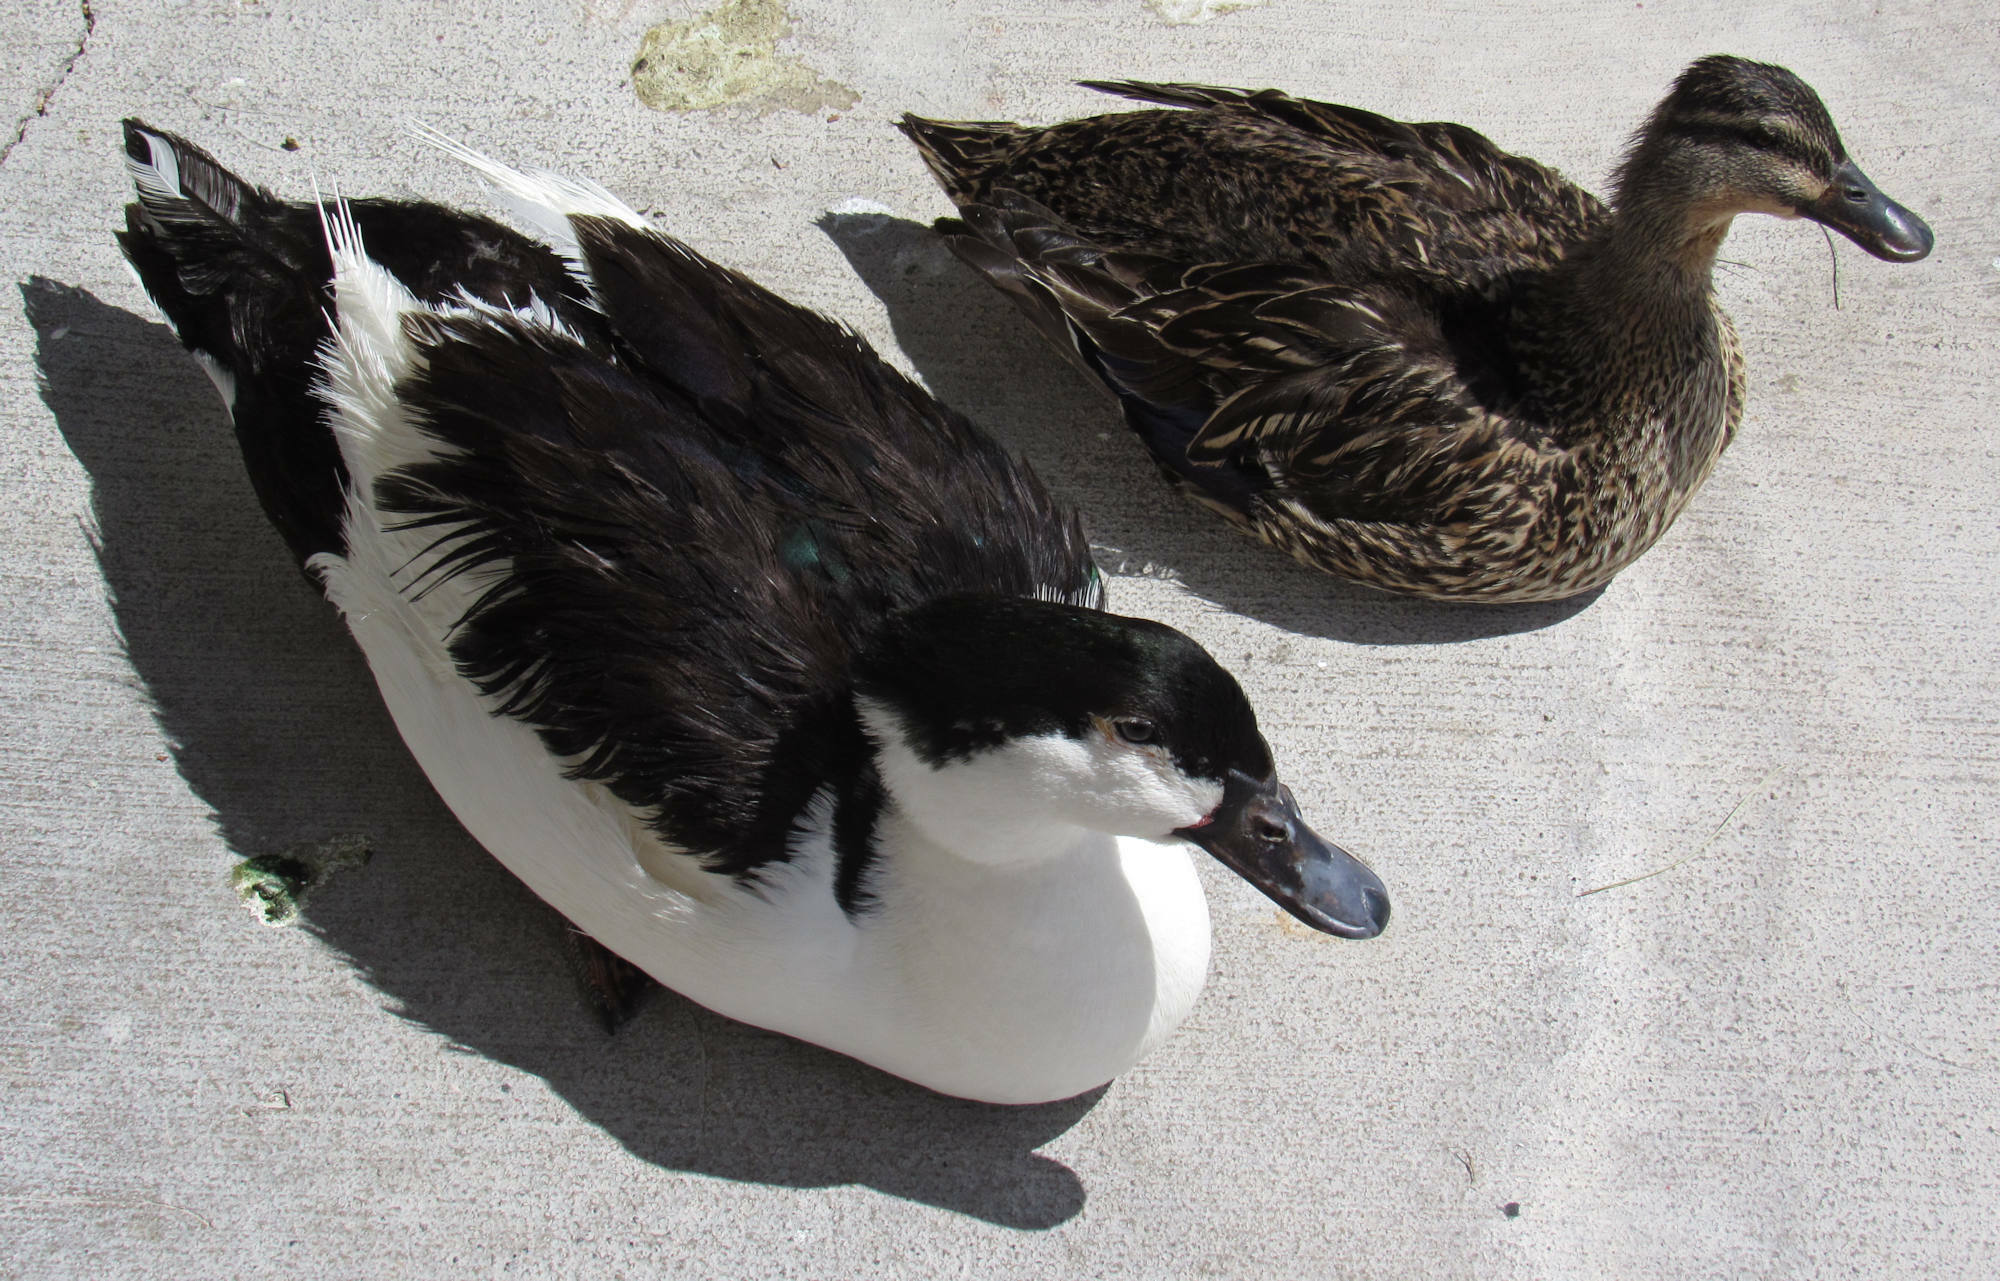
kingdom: Animalia
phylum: Chordata
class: Aves
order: Anseriformes
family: Anatidae
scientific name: Anatidae
